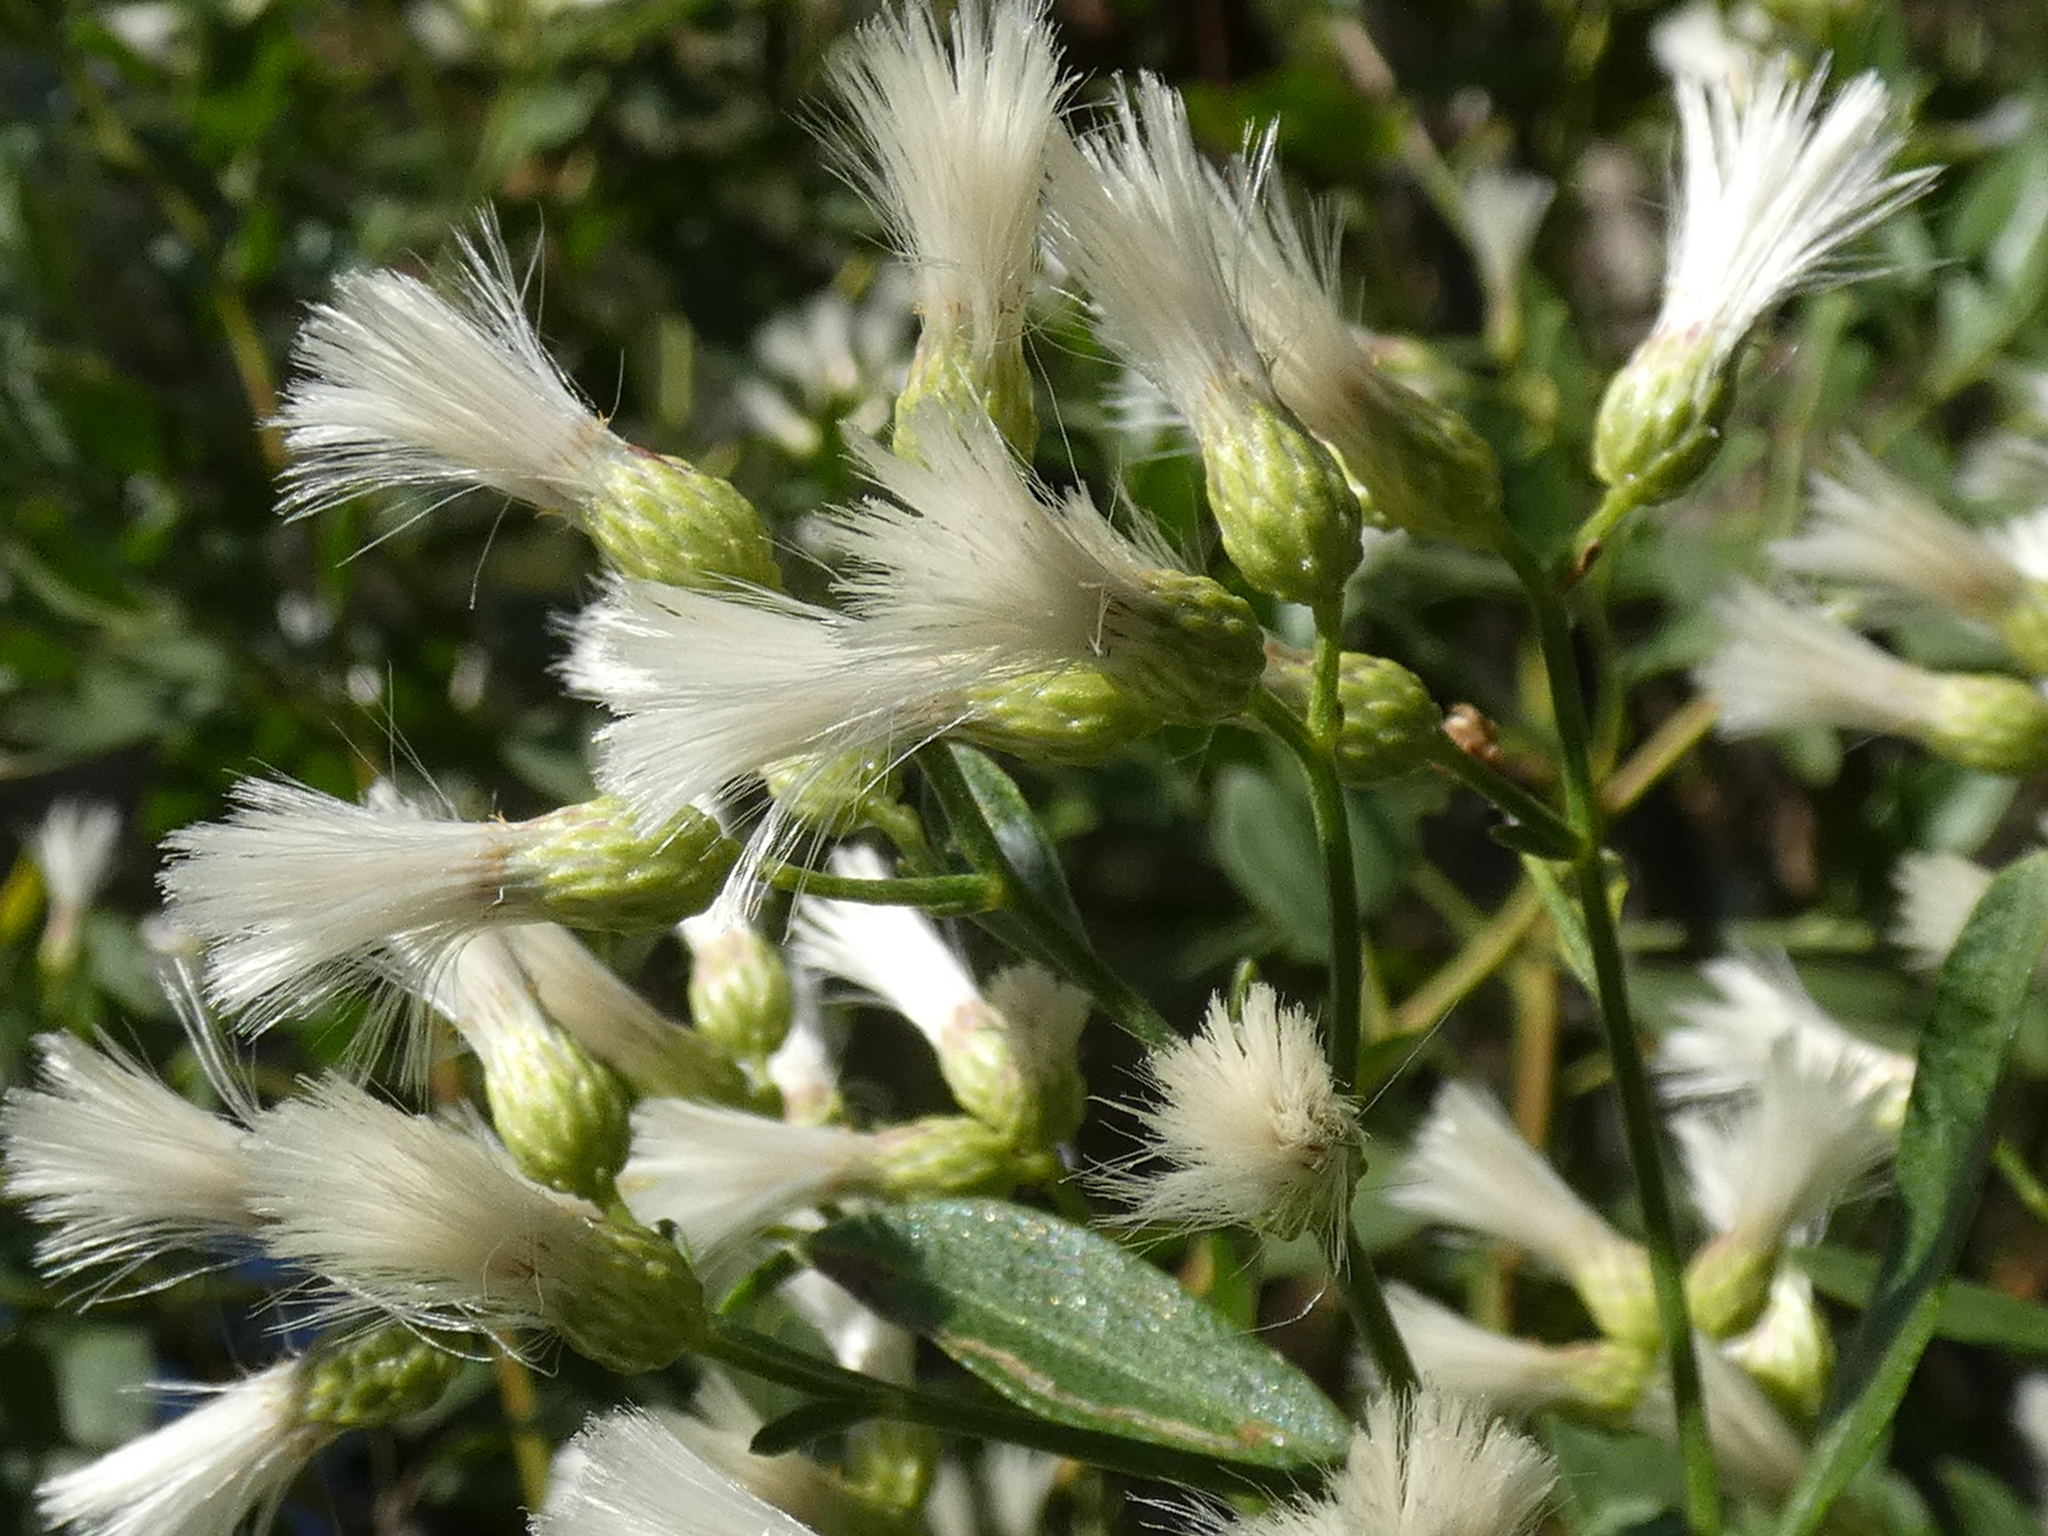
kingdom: Plantae
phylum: Tracheophyta
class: Magnoliopsida
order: Asterales
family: Asteraceae
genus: Baccharis
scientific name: Baccharis halimifolia
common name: Eastern baccharis
